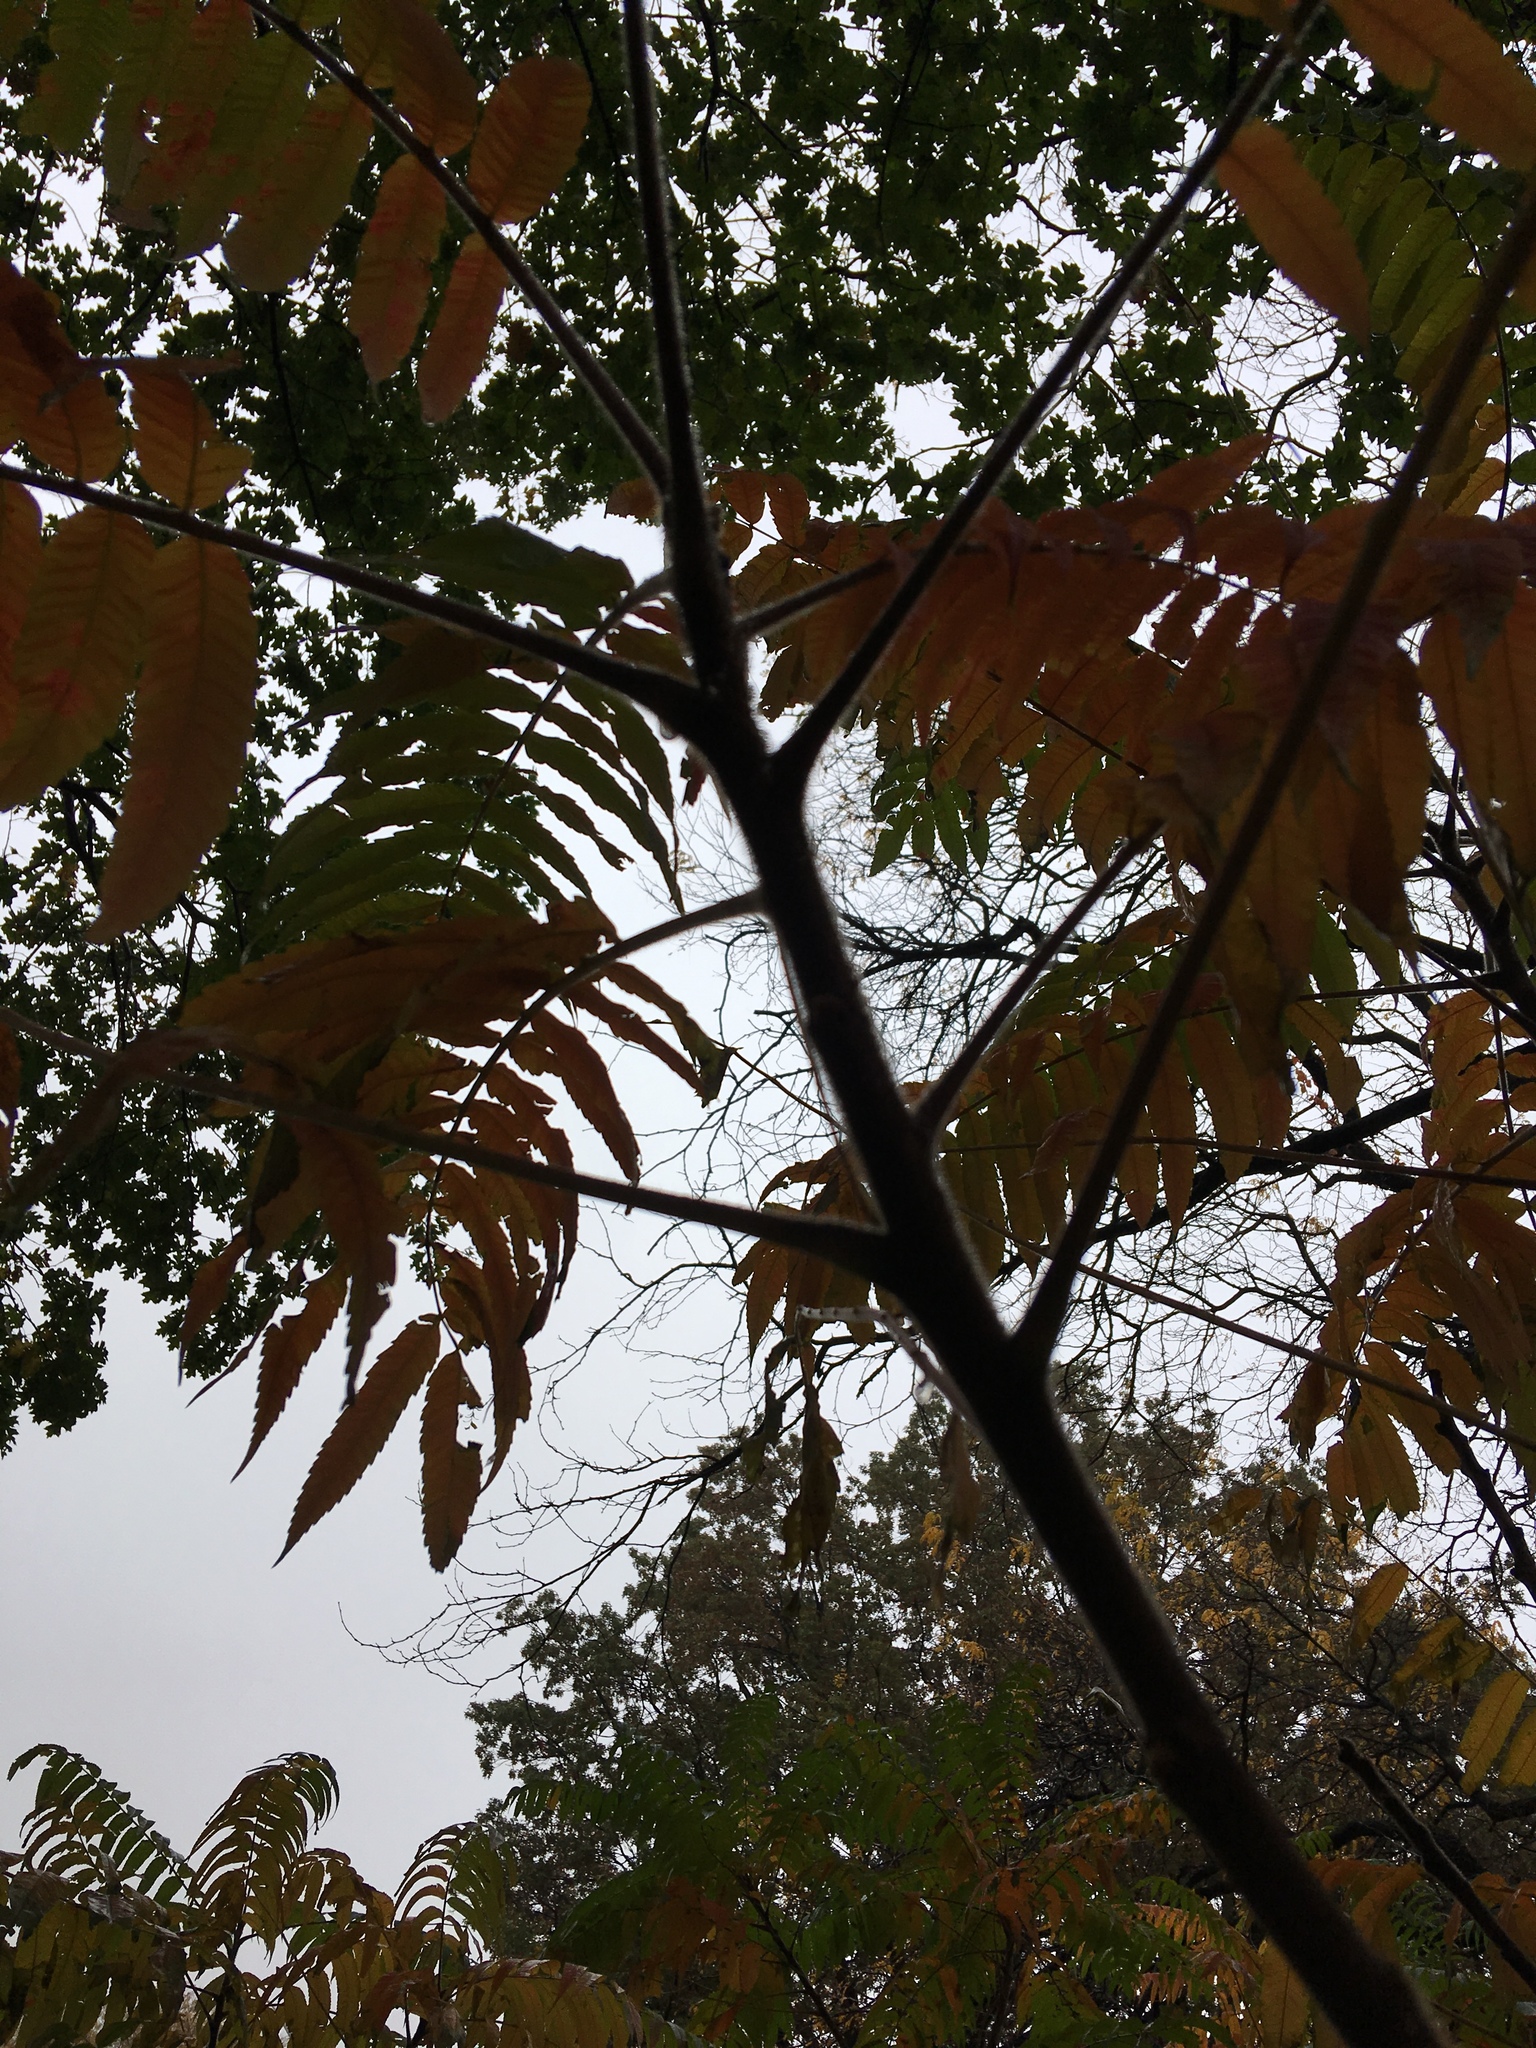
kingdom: Plantae
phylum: Tracheophyta
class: Magnoliopsida
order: Sapindales
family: Anacardiaceae
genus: Rhus
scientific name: Rhus typhina
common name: Staghorn sumac
